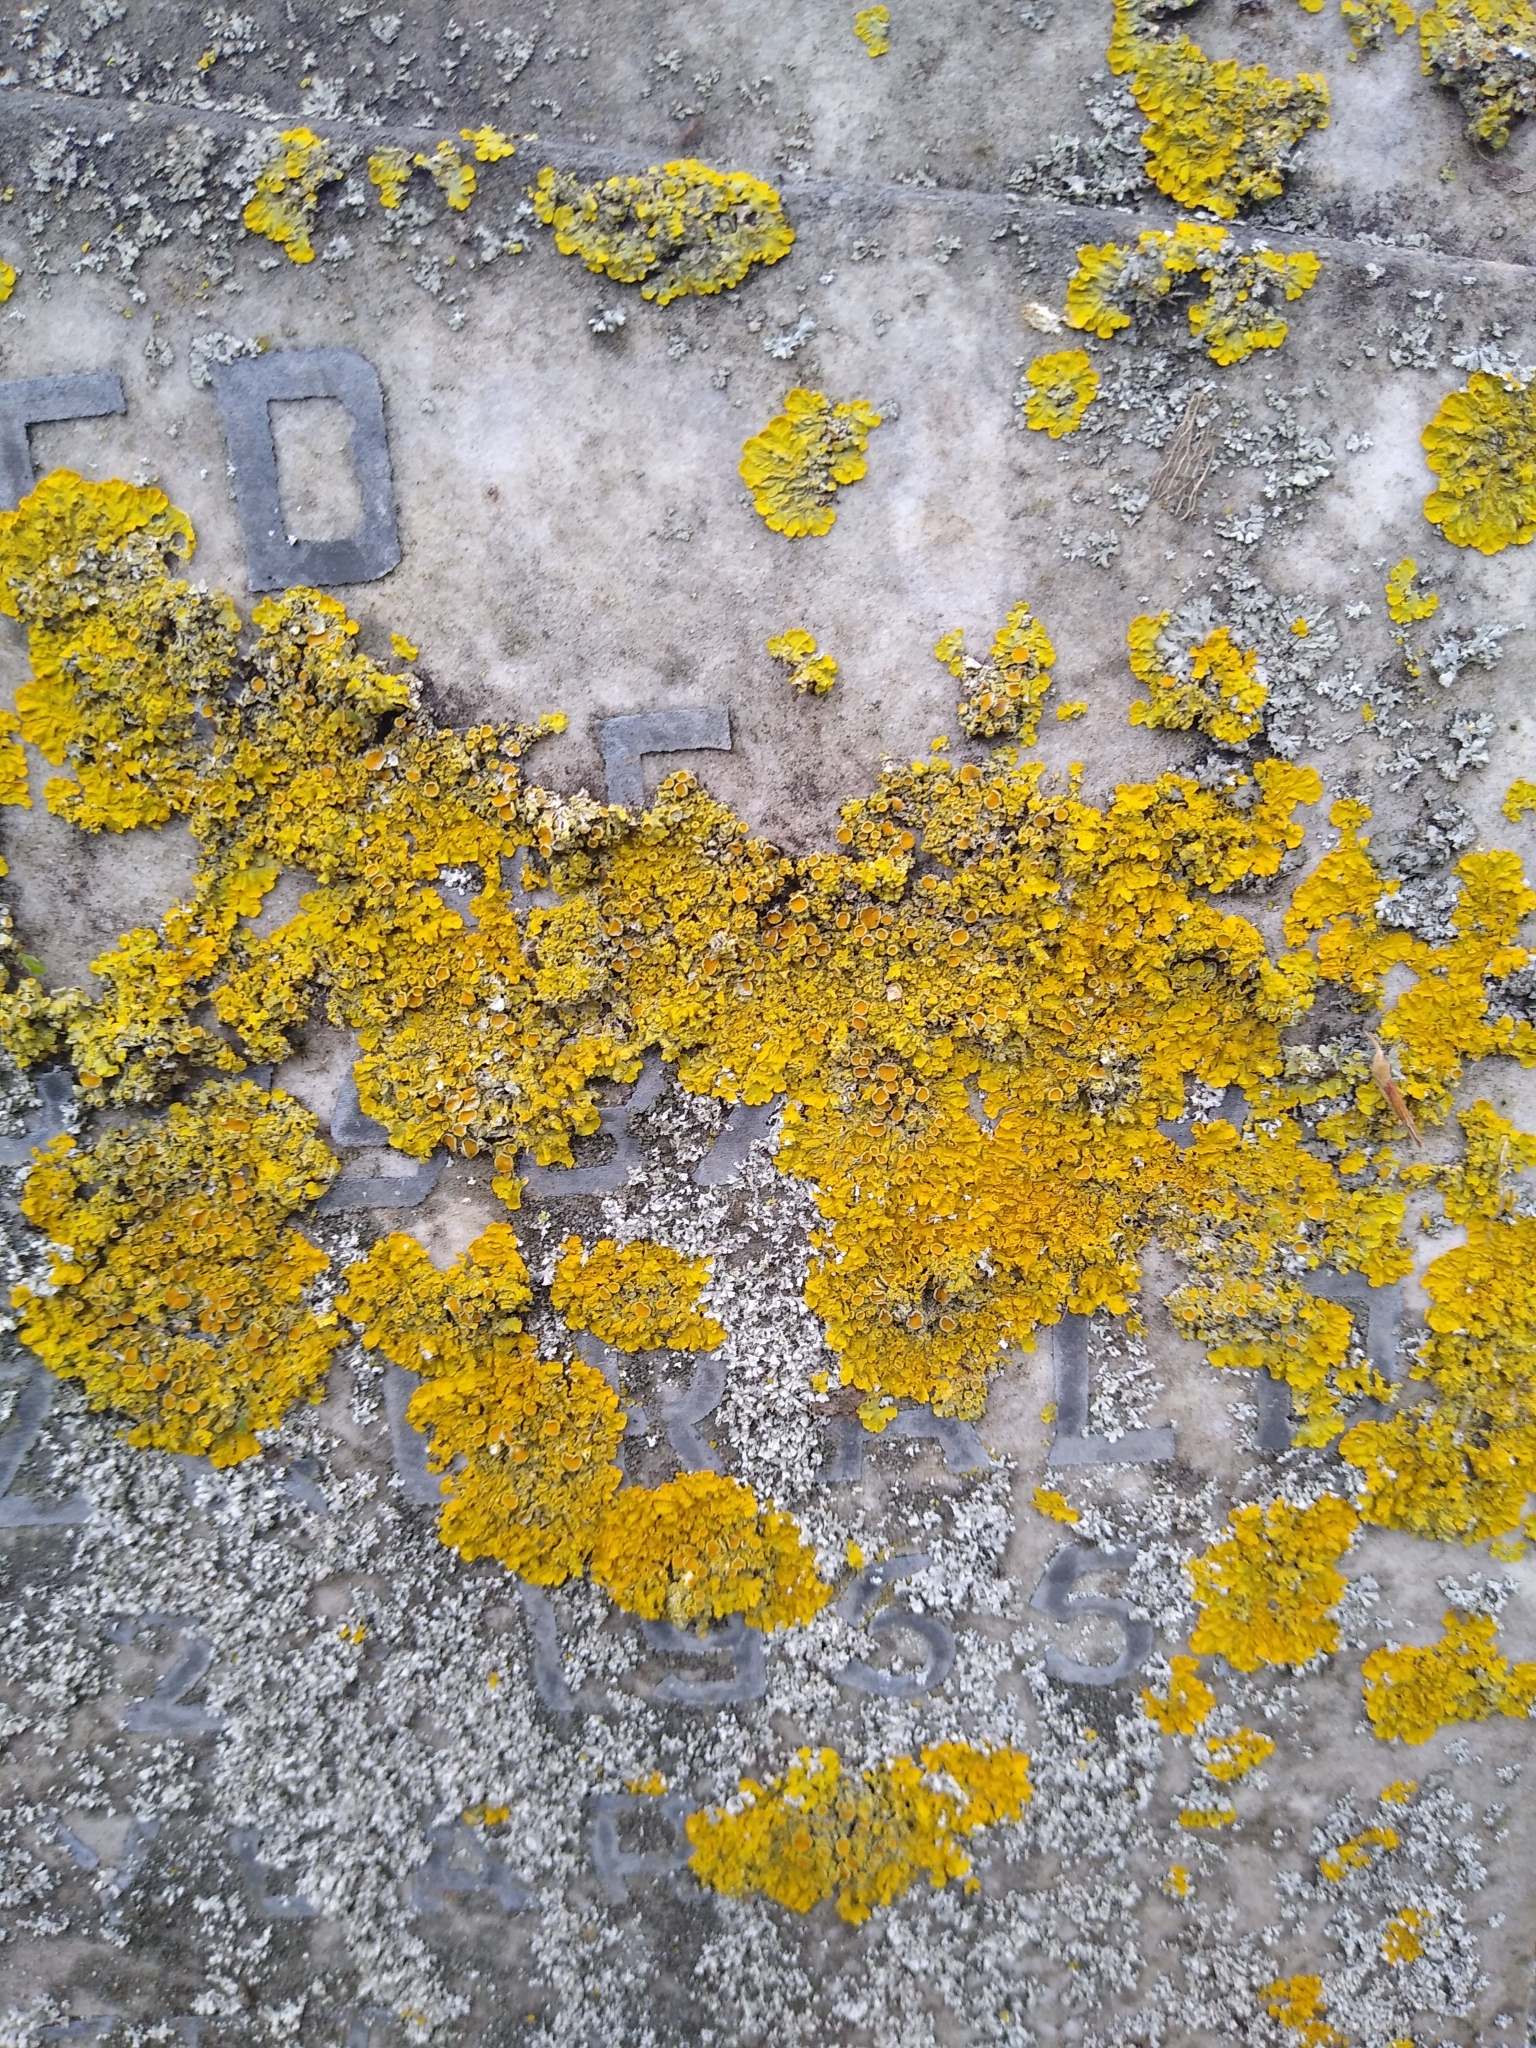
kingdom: Fungi
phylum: Ascomycota
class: Lecanoromycetes
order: Teloschistales
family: Teloschistaceae
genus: Xanthoria
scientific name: Xanthoria parietina
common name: Common orange lichen
